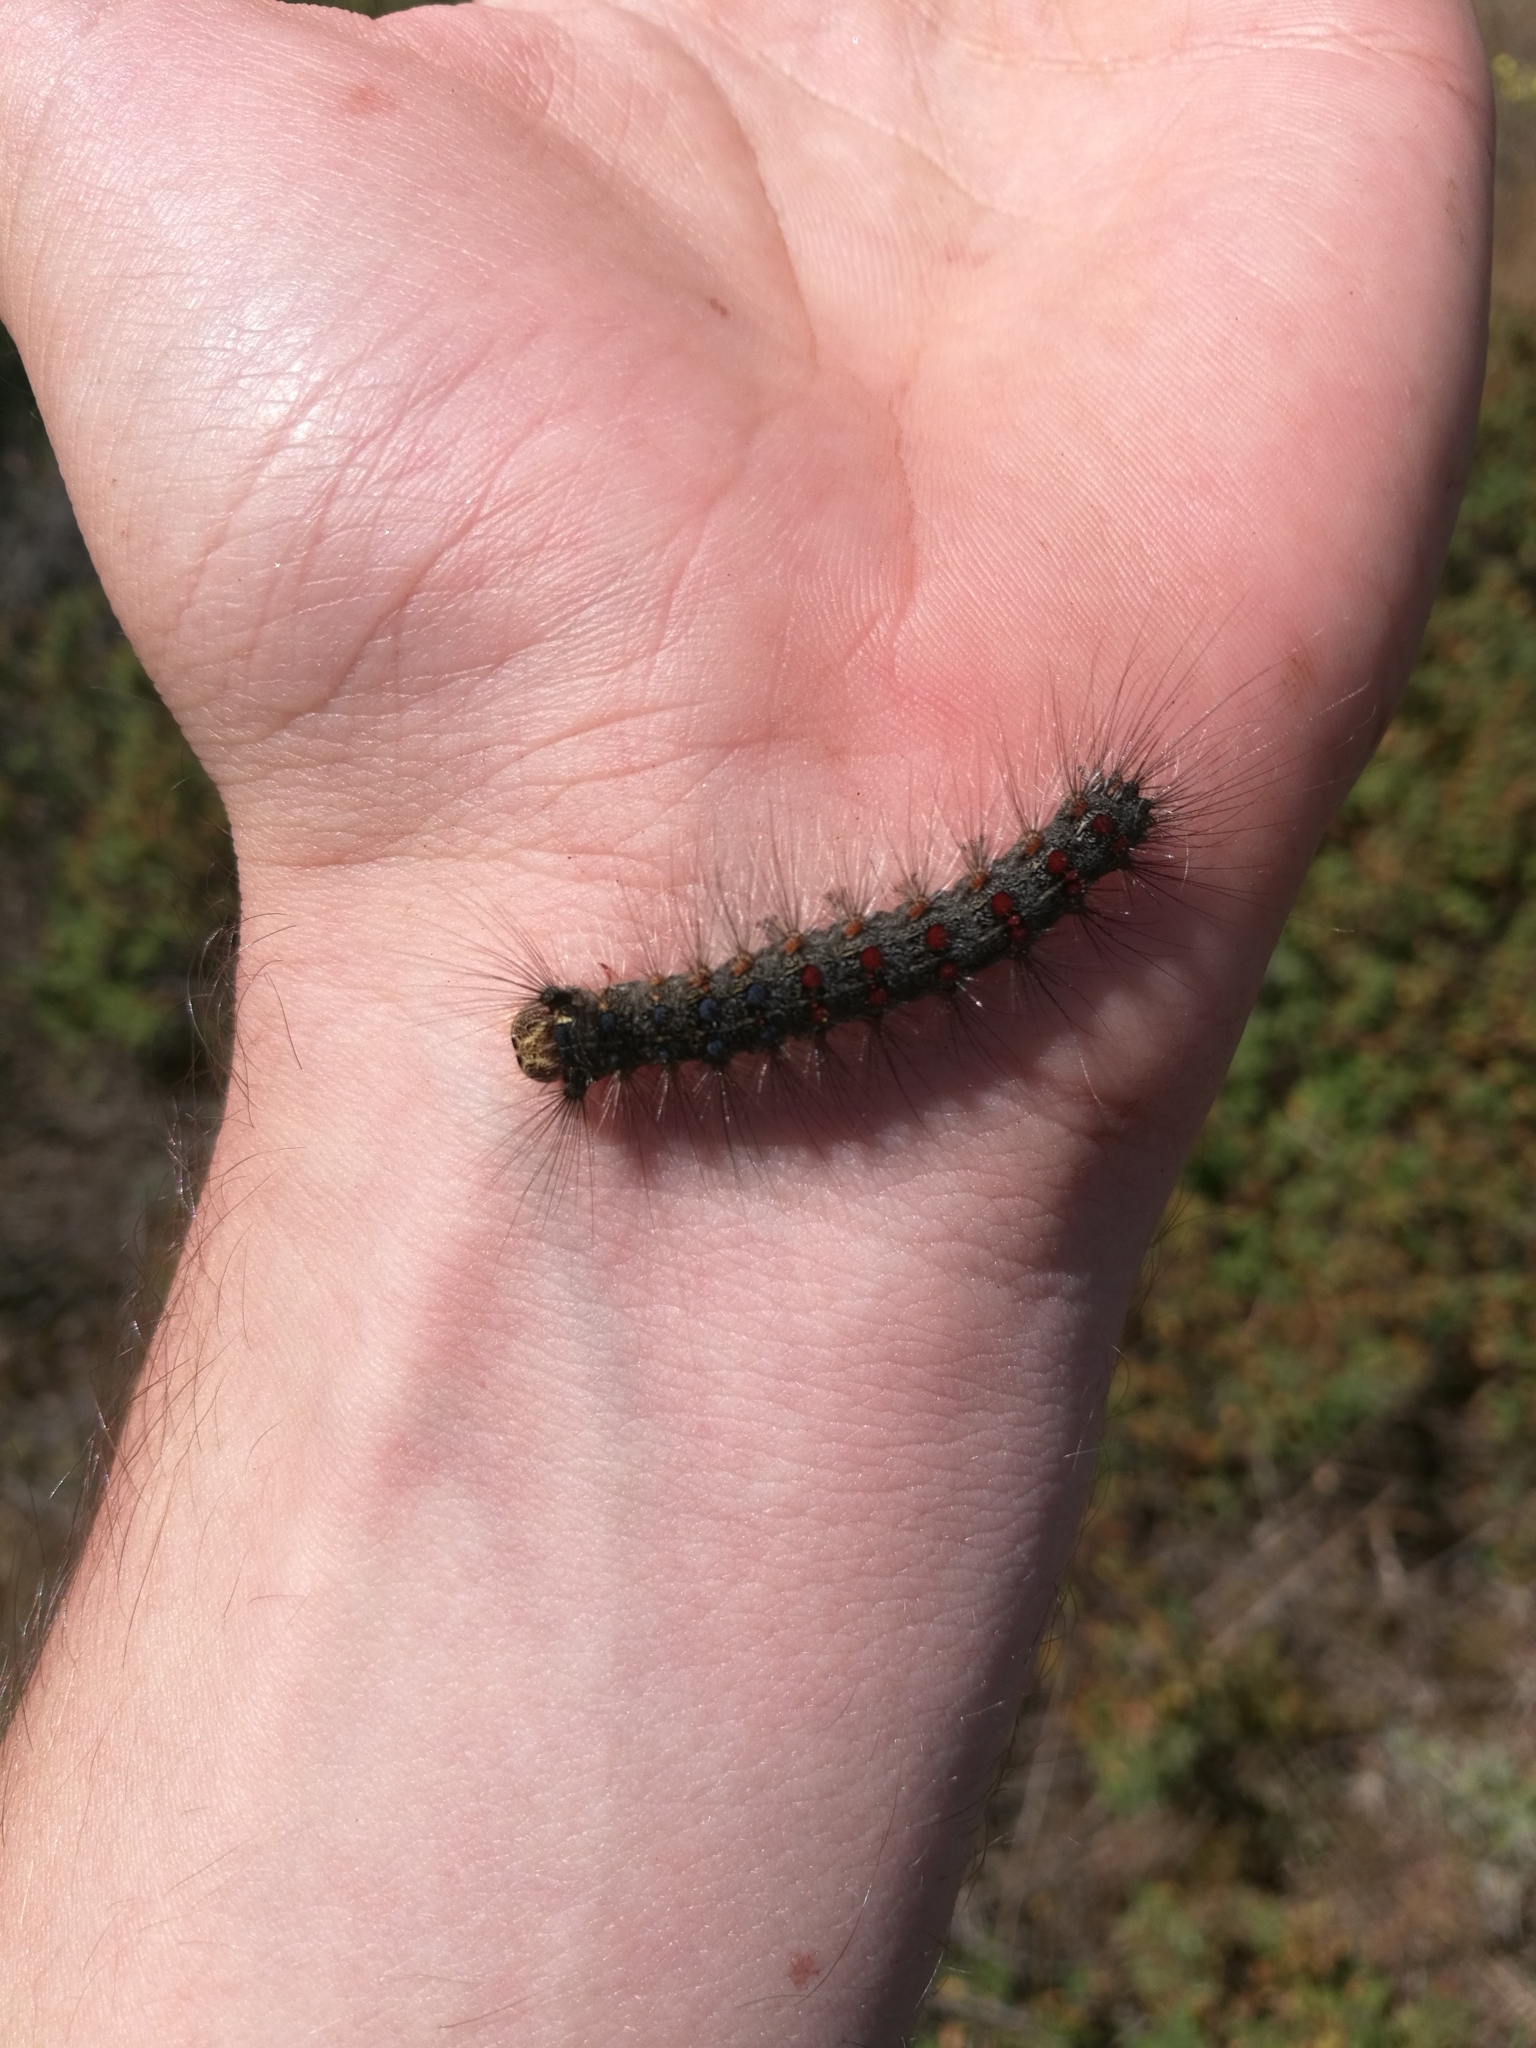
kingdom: Animalia
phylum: Arthropoda
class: Insecta
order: Lepidoptera
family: Erebidae
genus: Lymantria
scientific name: Lymantria dispar
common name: Gypsy moth
